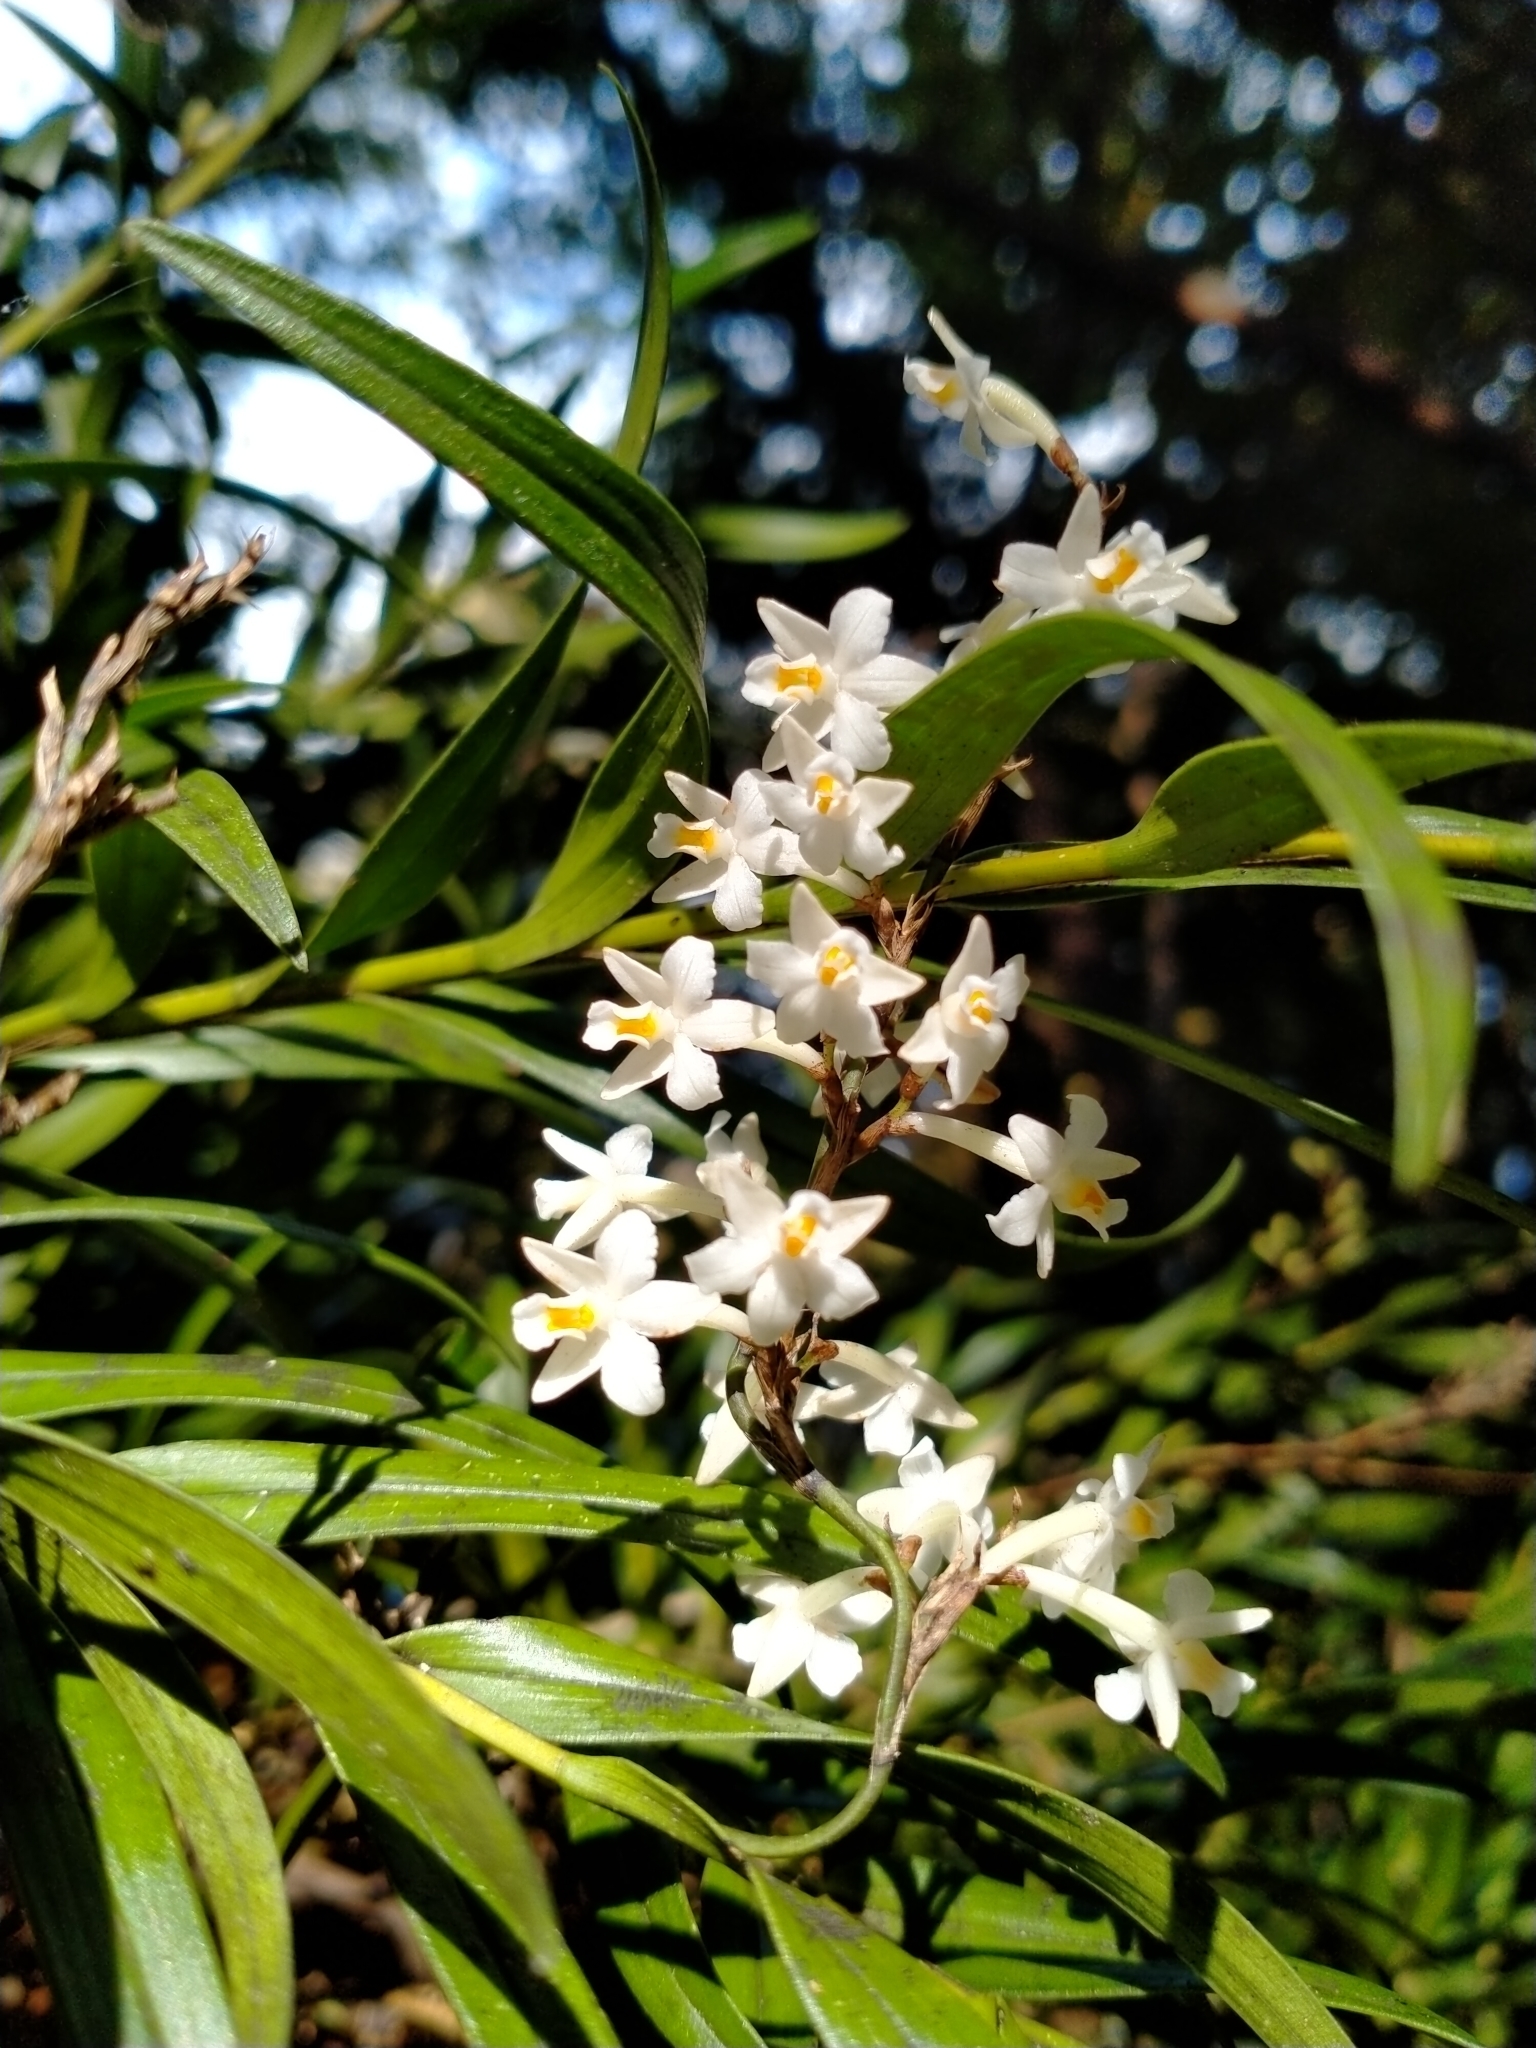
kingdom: Plantae
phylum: Tracheophyta
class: Liliopsida
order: Asparagales
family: Orchidaceae
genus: Earina
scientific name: Earina autumnalis
